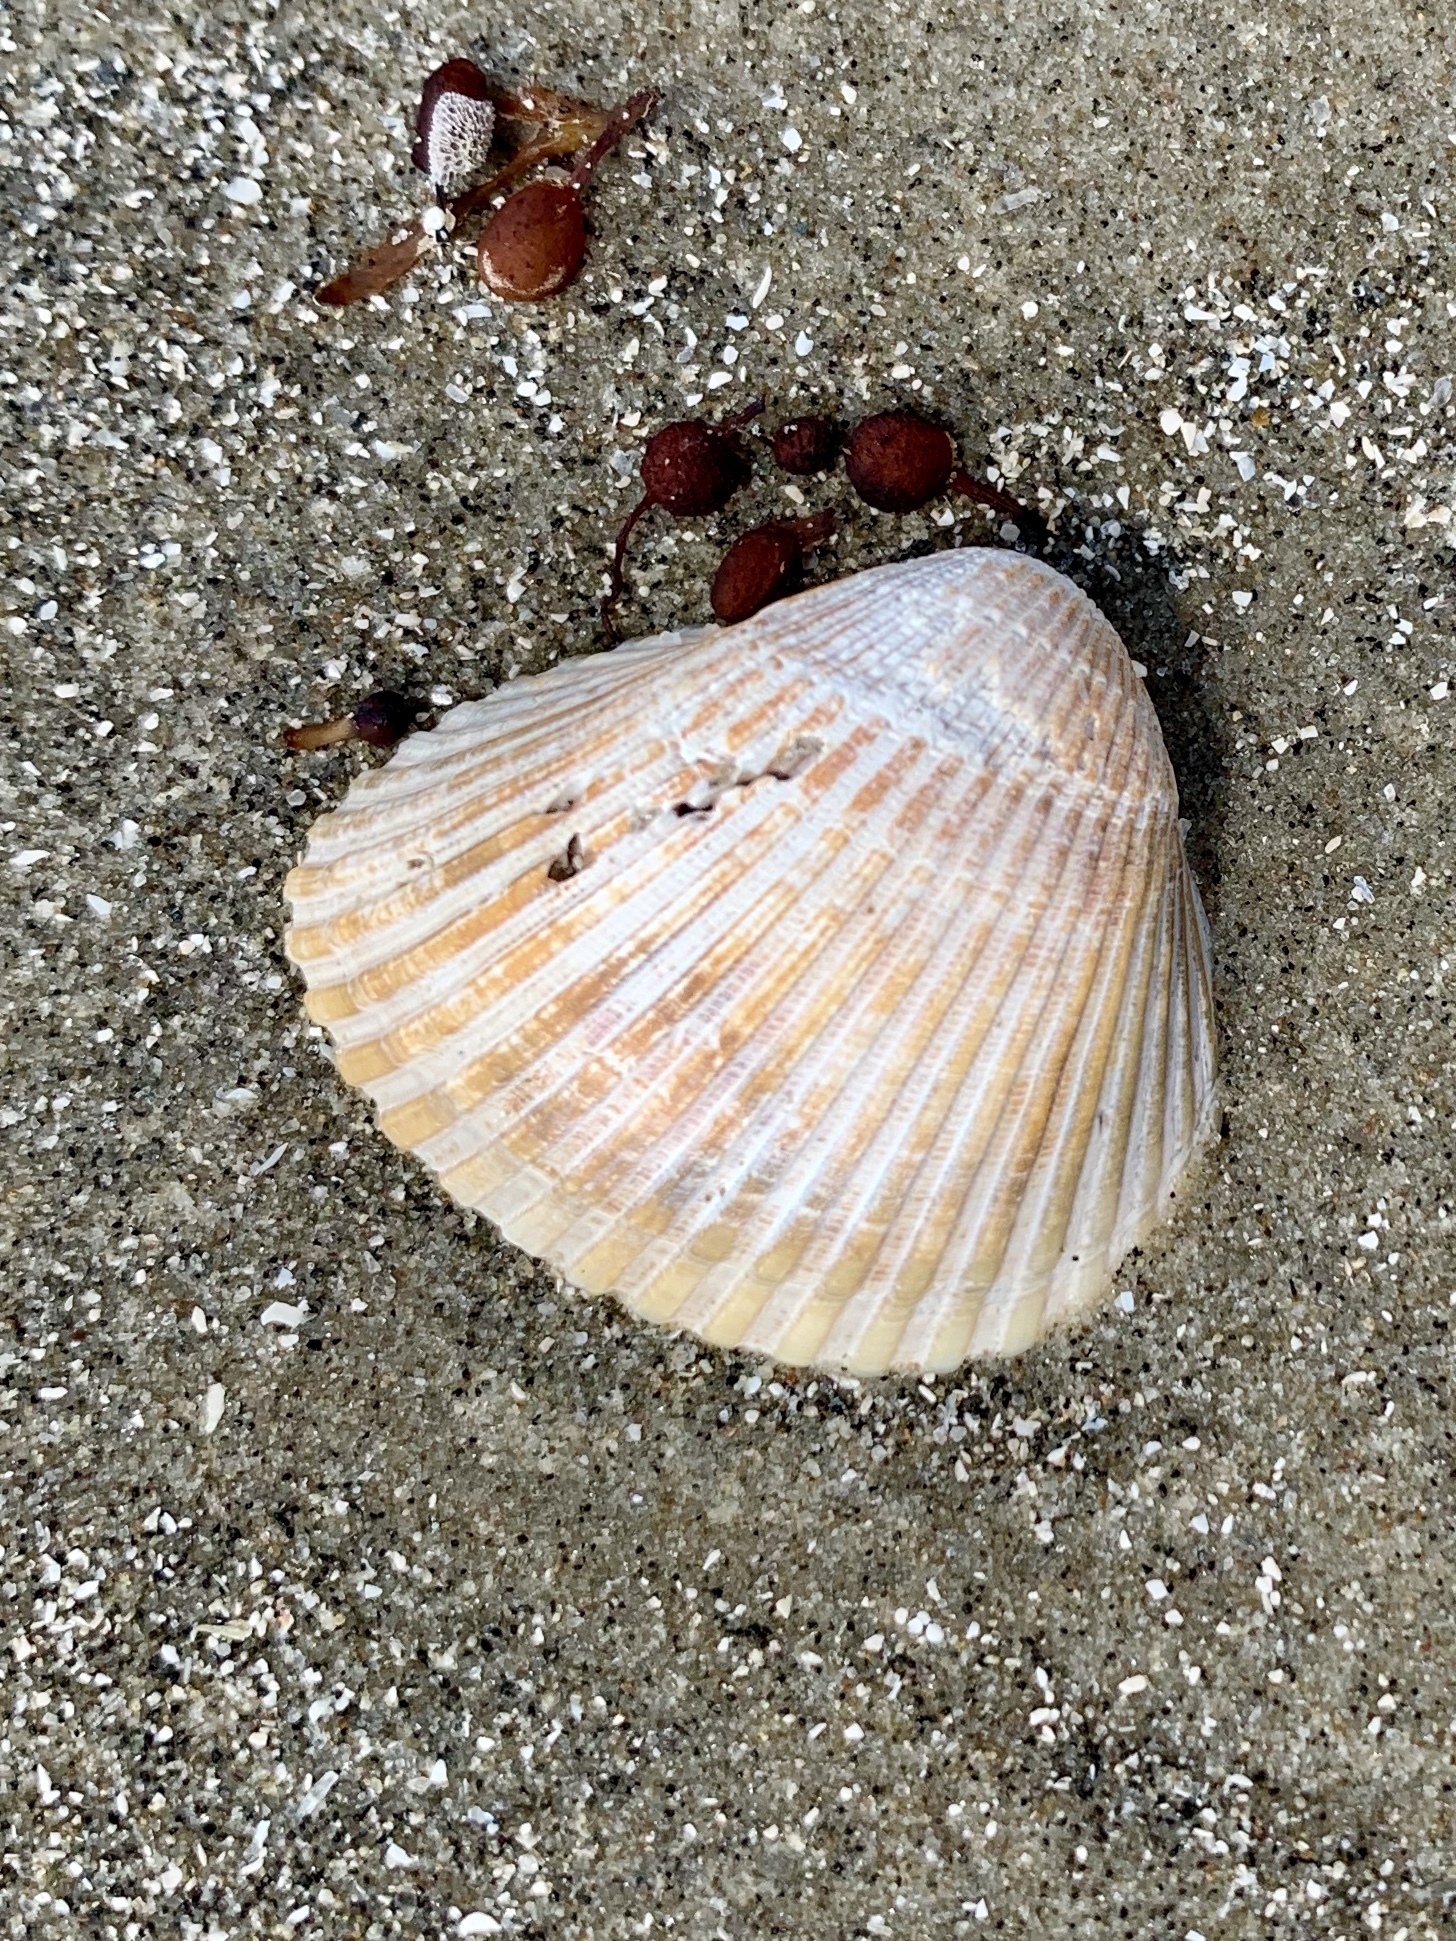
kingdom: Animalia
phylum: Mollusca
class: Bivalvia
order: Arcida
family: Noetiidae
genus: Noetia
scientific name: Noetia ponderosa
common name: Ponderous ark
